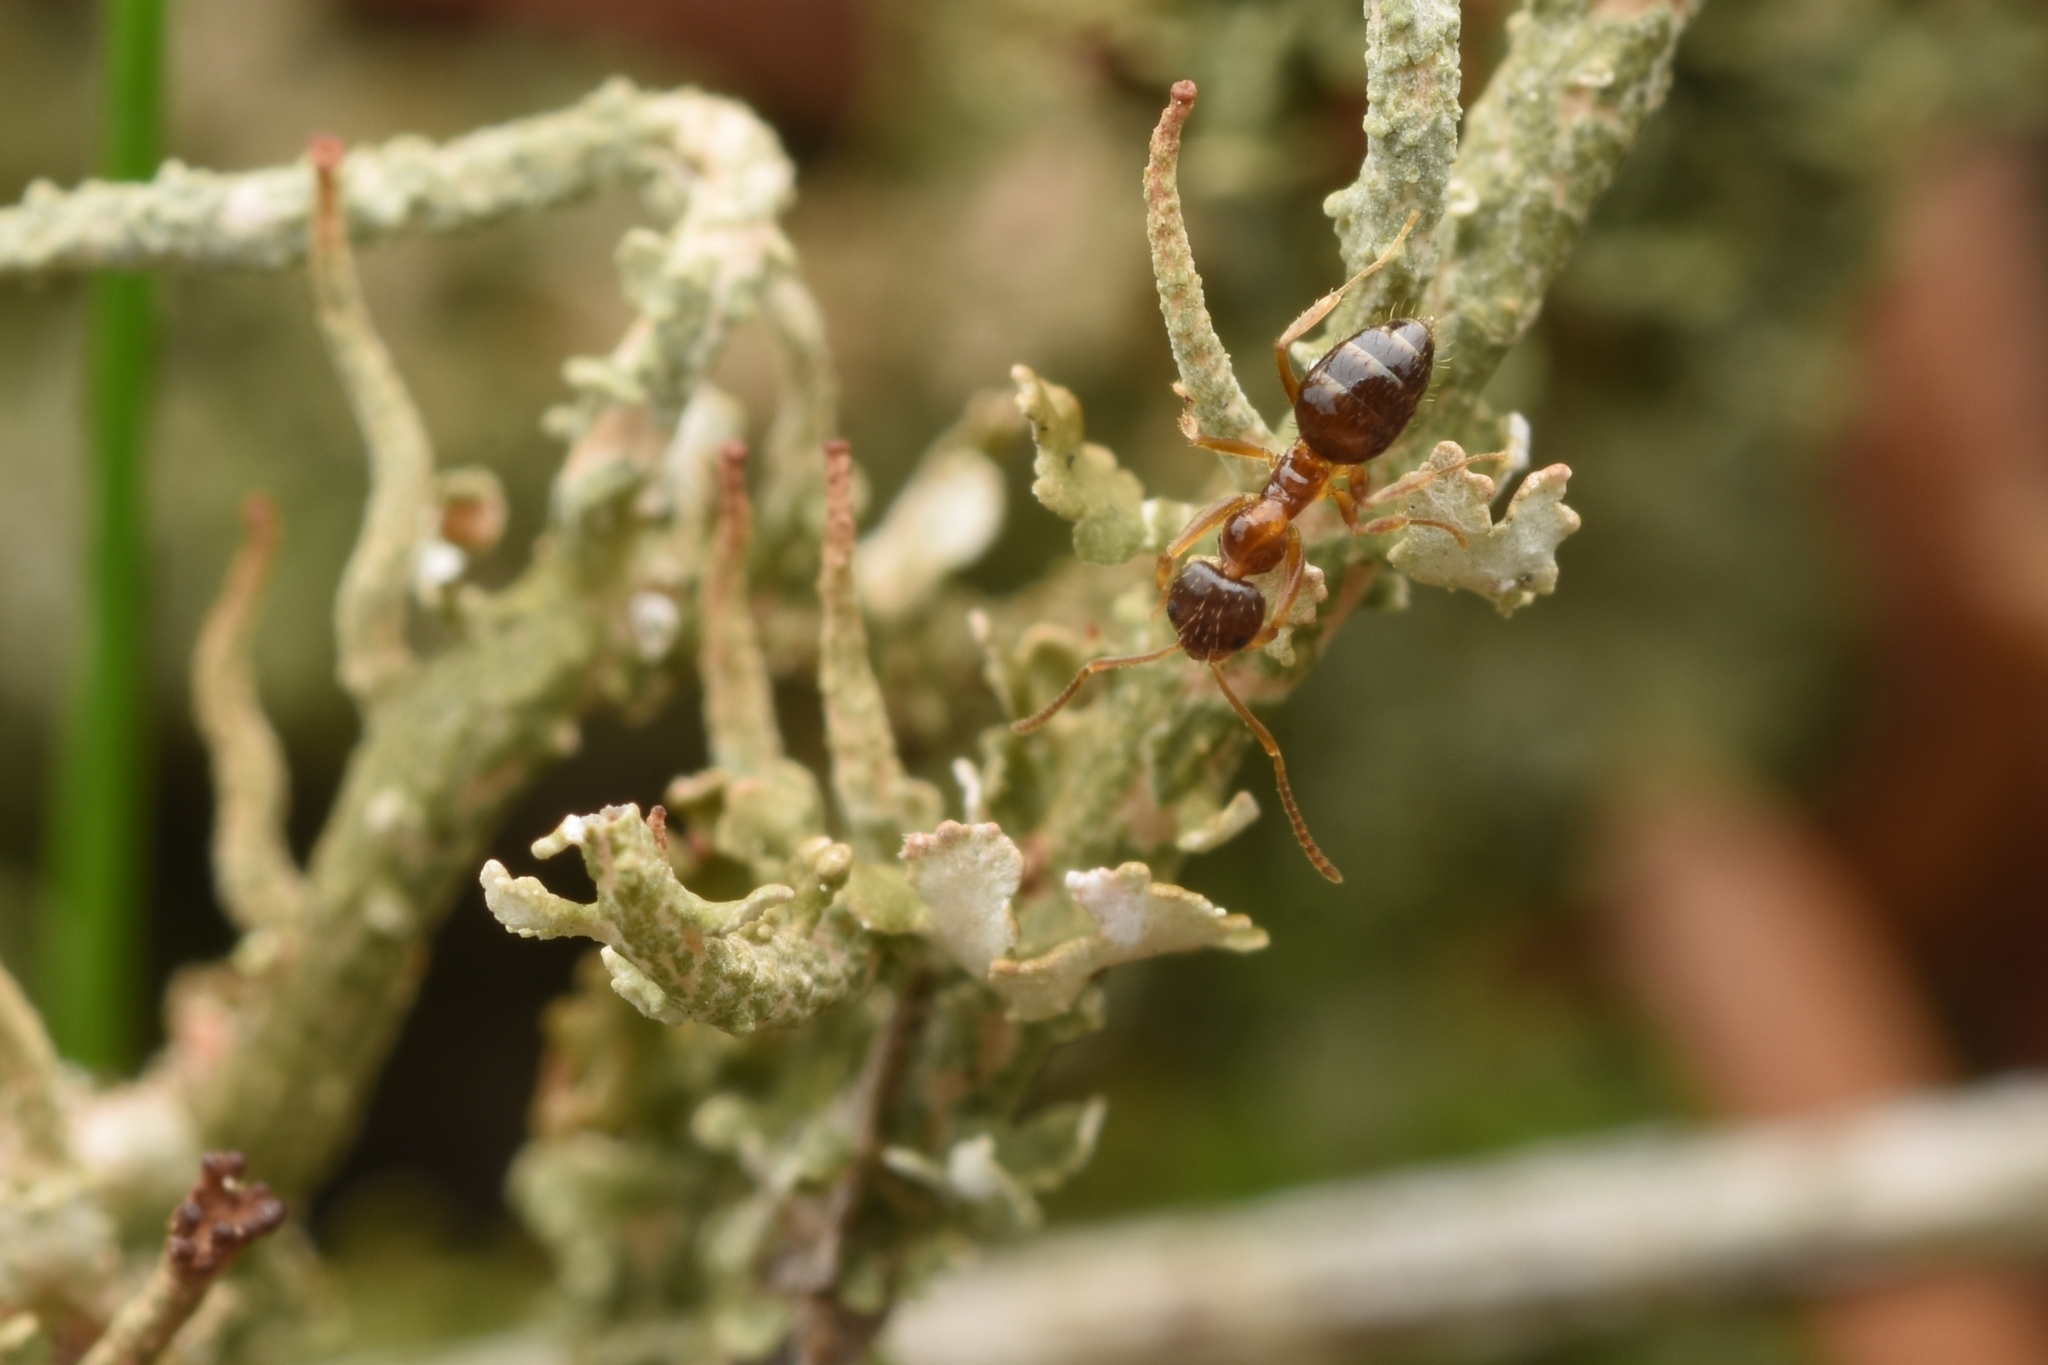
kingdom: Animalia
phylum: Arthropoda
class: Insecta
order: Hymenoptera
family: Formicidae
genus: Paratrechina
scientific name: Paratrechina flavipes
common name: Eastern asian formicine ant
